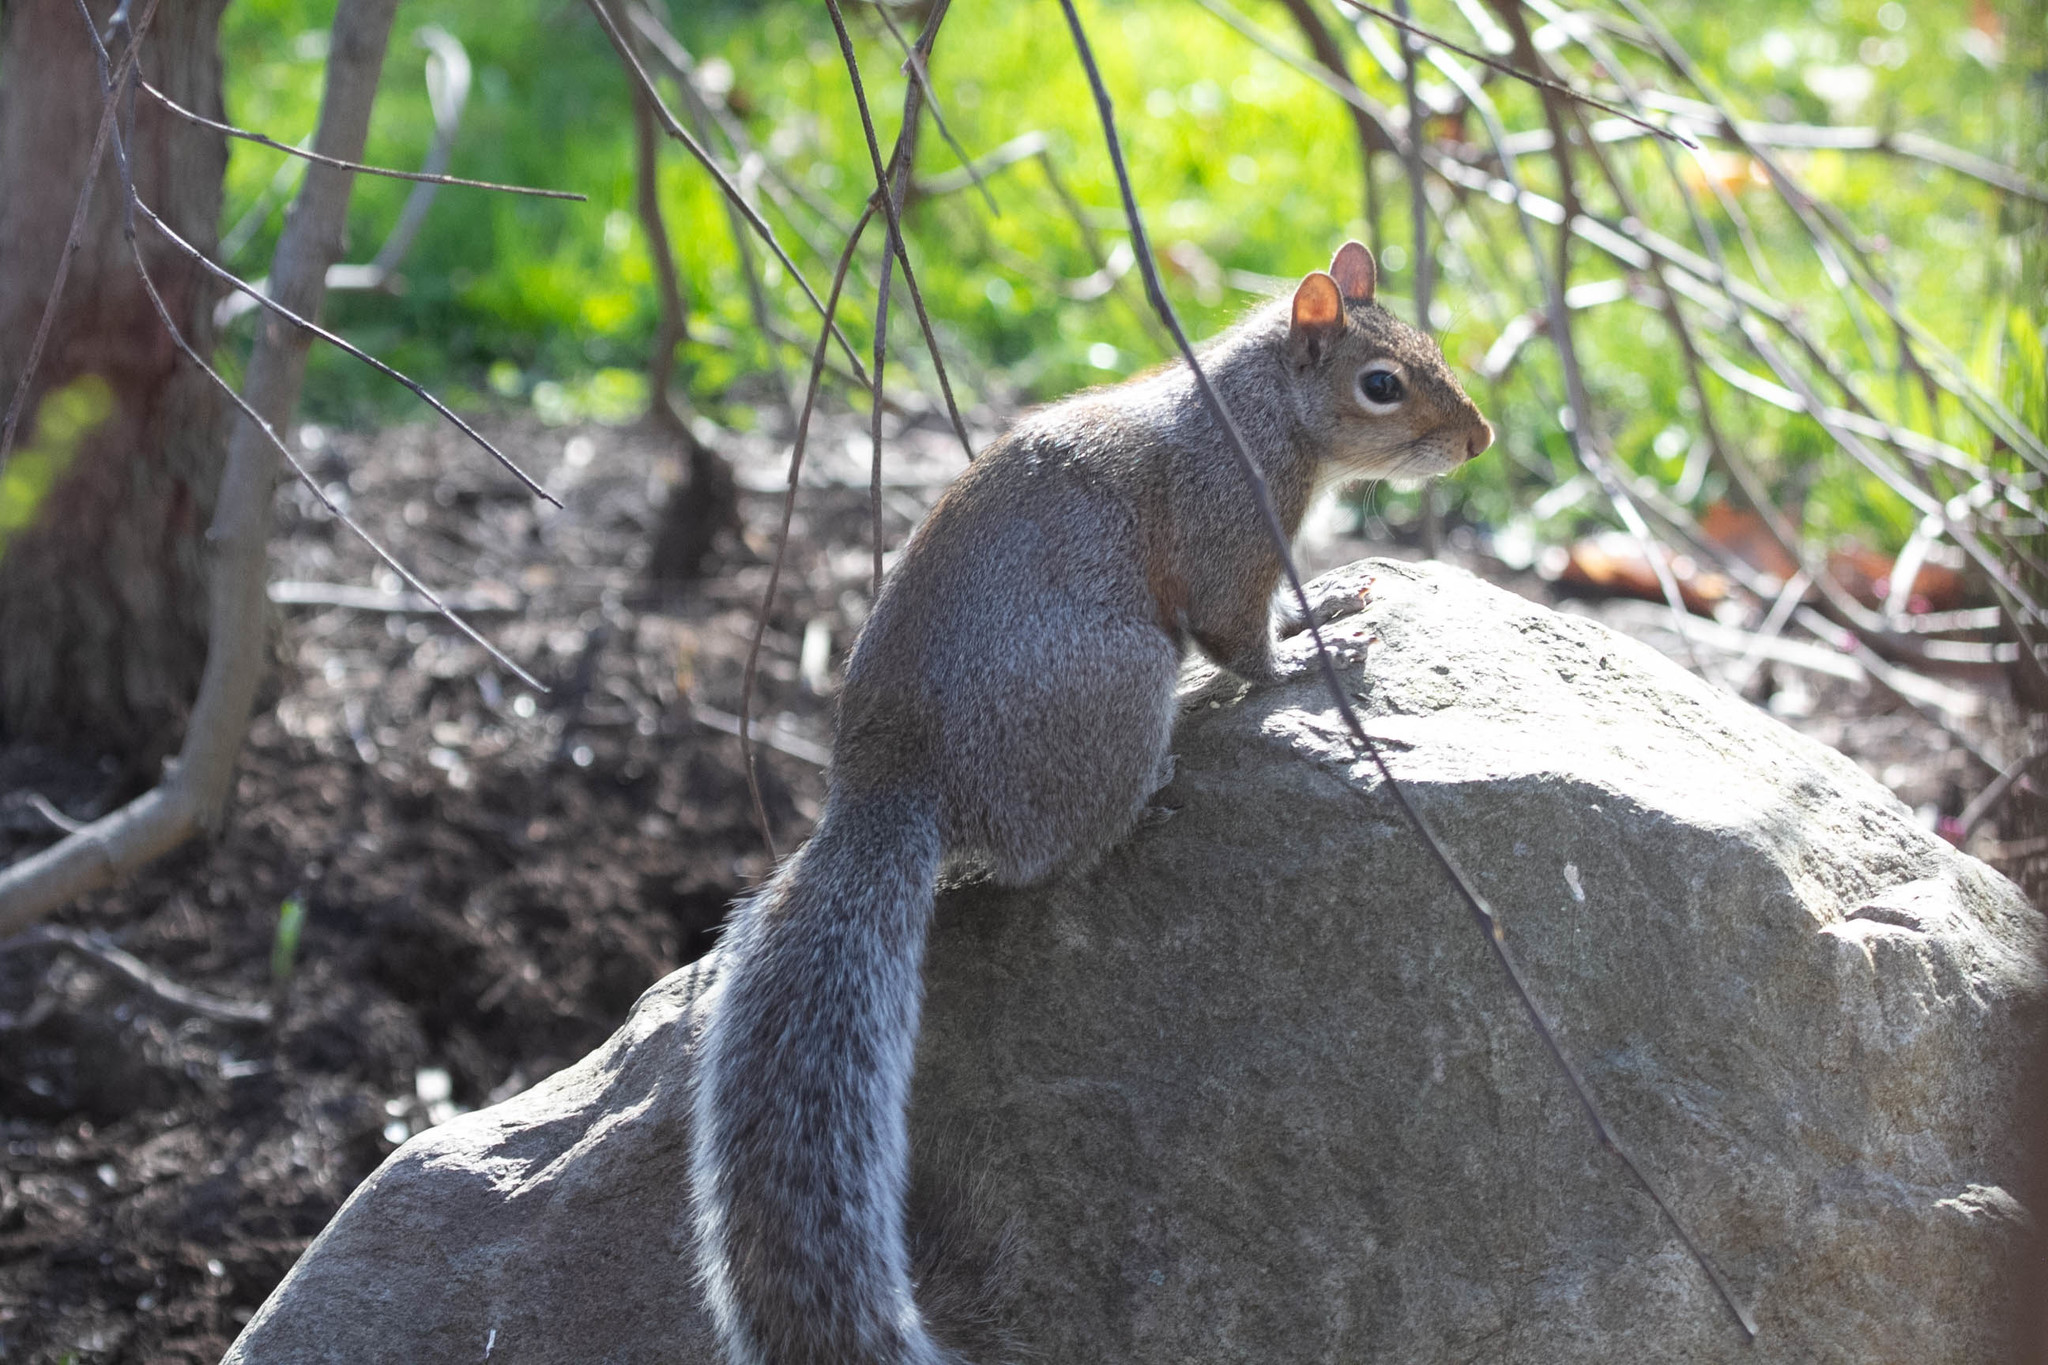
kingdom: Animalia
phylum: Chordata
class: Mammalia
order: Rodentia
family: Sciuridae
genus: Sciurus
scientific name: Sciurus carolinensis
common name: Eastern gray squirrel
